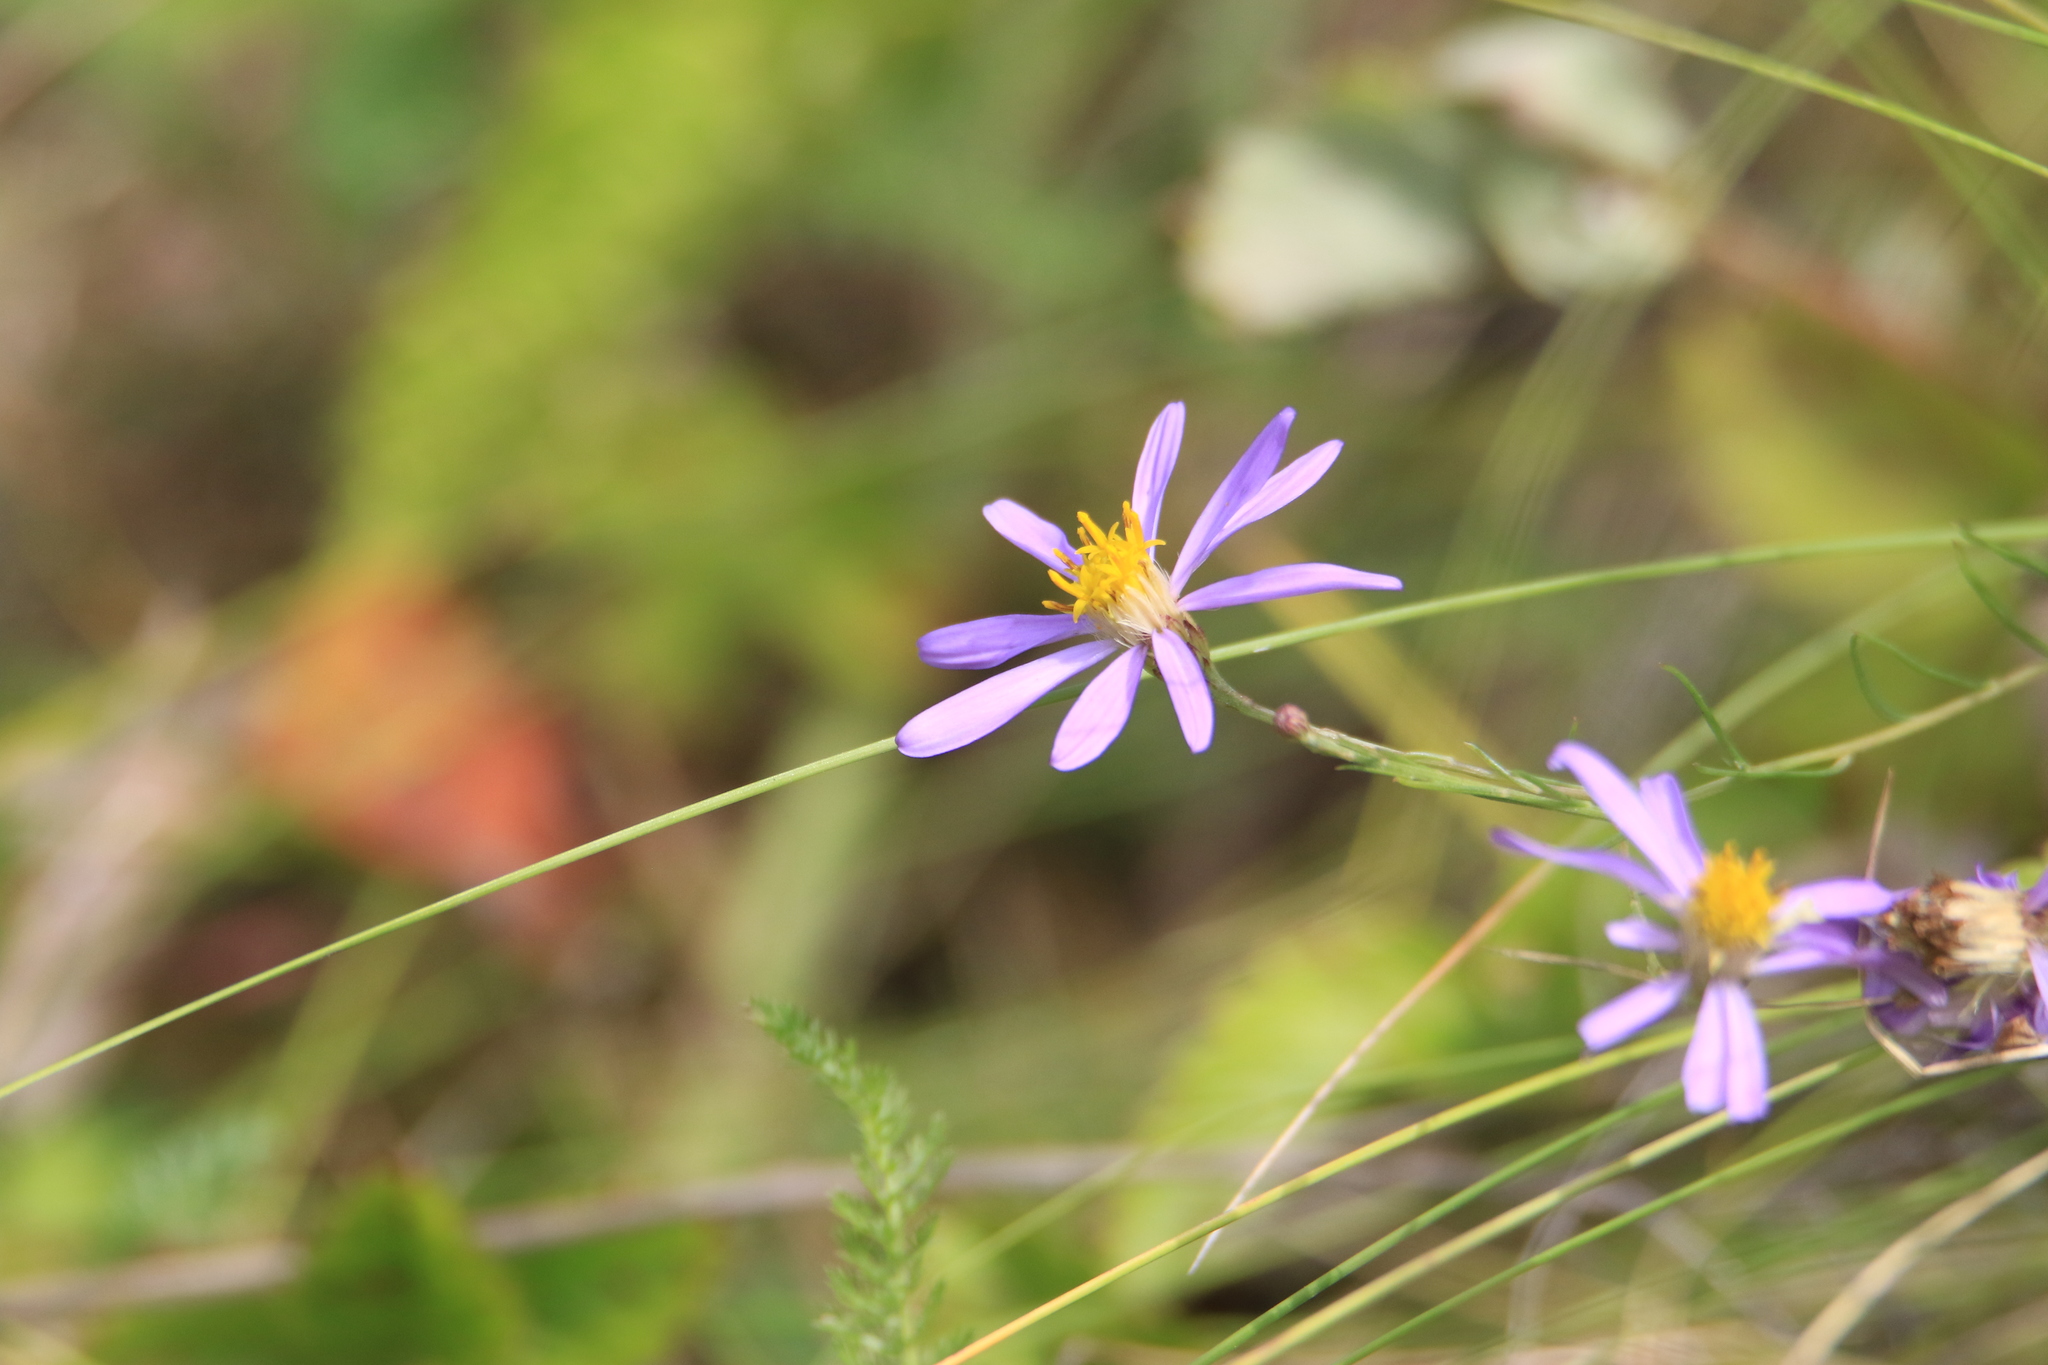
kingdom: Plantae
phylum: Tracheophyta
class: Magnoliopsida
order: Asterales
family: Asteraceae
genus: Galatella
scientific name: Galatella angustissima
